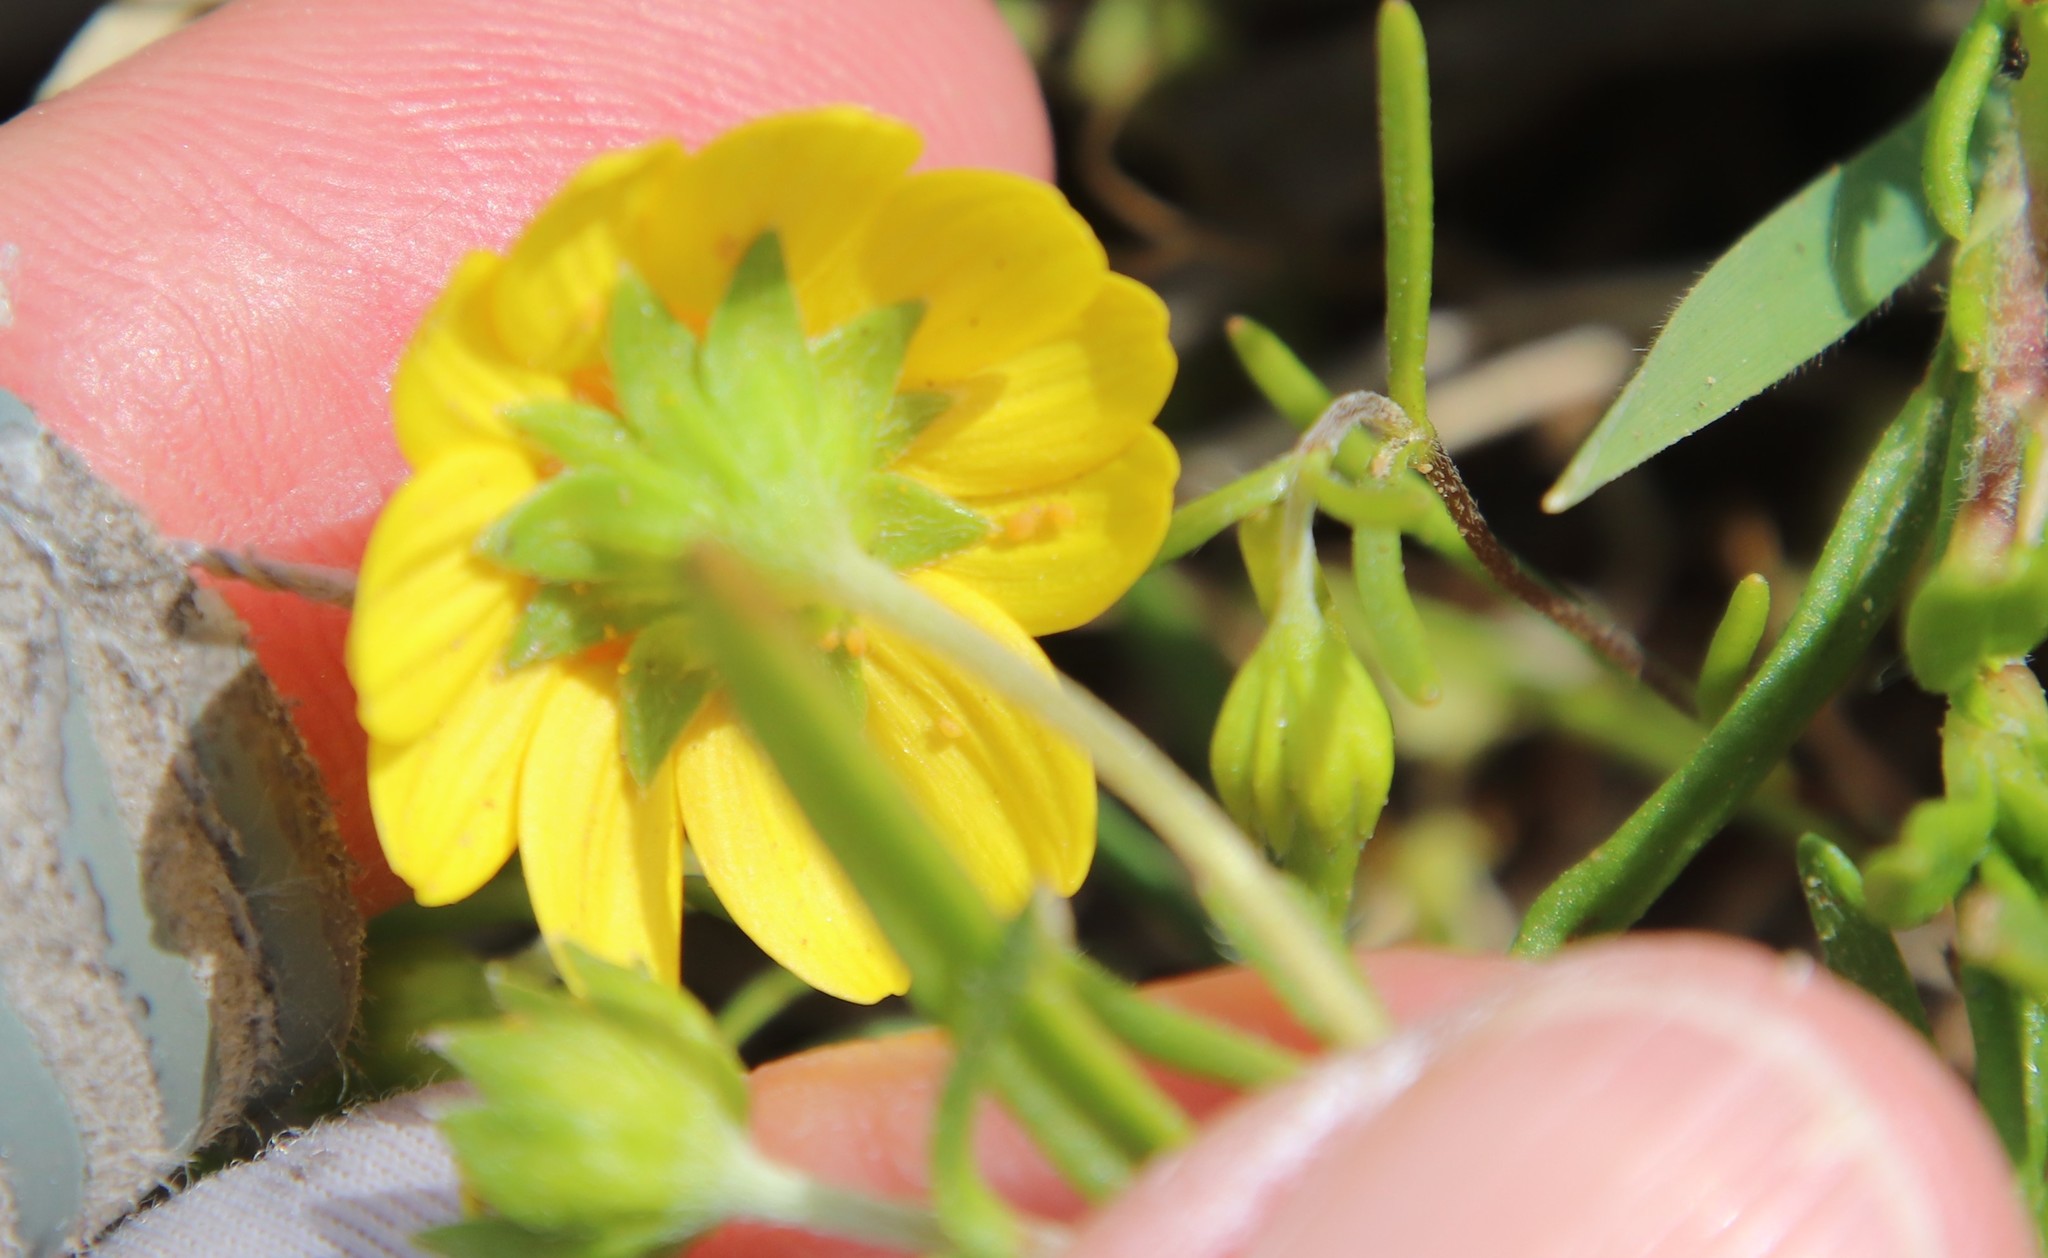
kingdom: Plantae
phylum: Tracheophyta
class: Magnoliopsida
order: Asterales
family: Asteraceae
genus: Lasthenia
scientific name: Lasthenia gracilis
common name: Common goldfields
